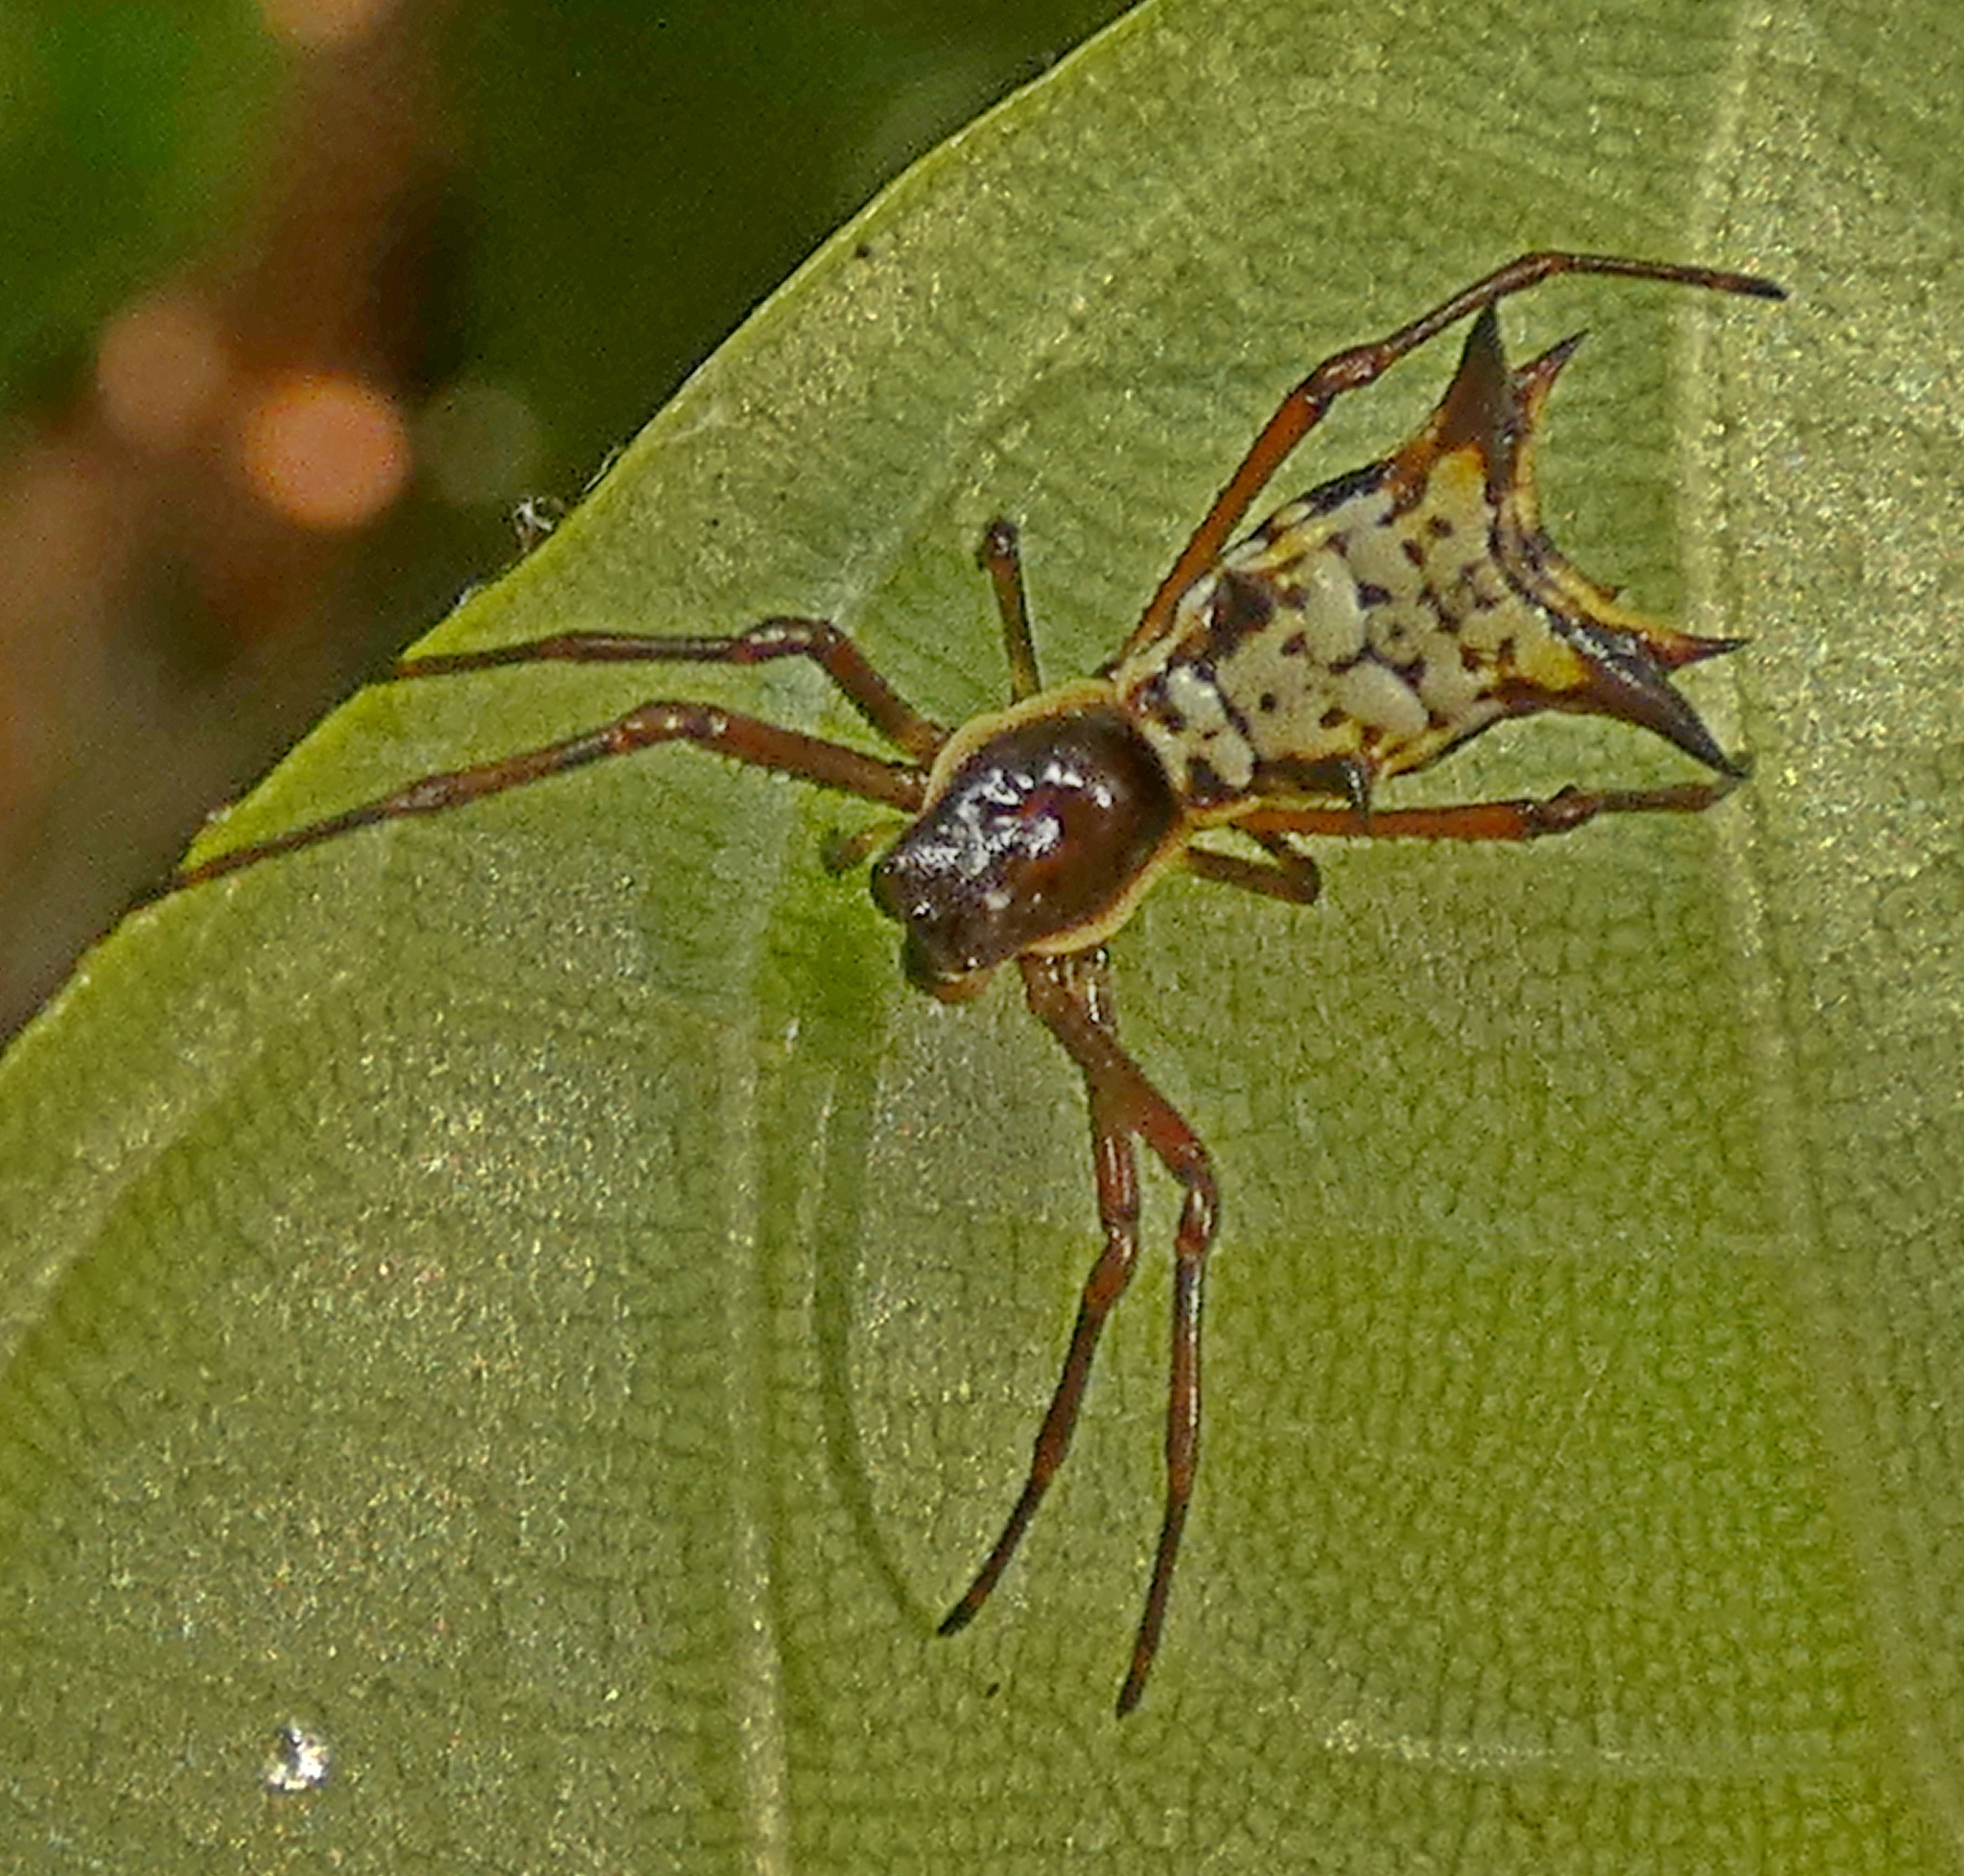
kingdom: Animalia
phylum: Arthropoda
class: Arachnida
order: Araneae
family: Araneidae
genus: Micrathena
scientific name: Micrathena fissispina
